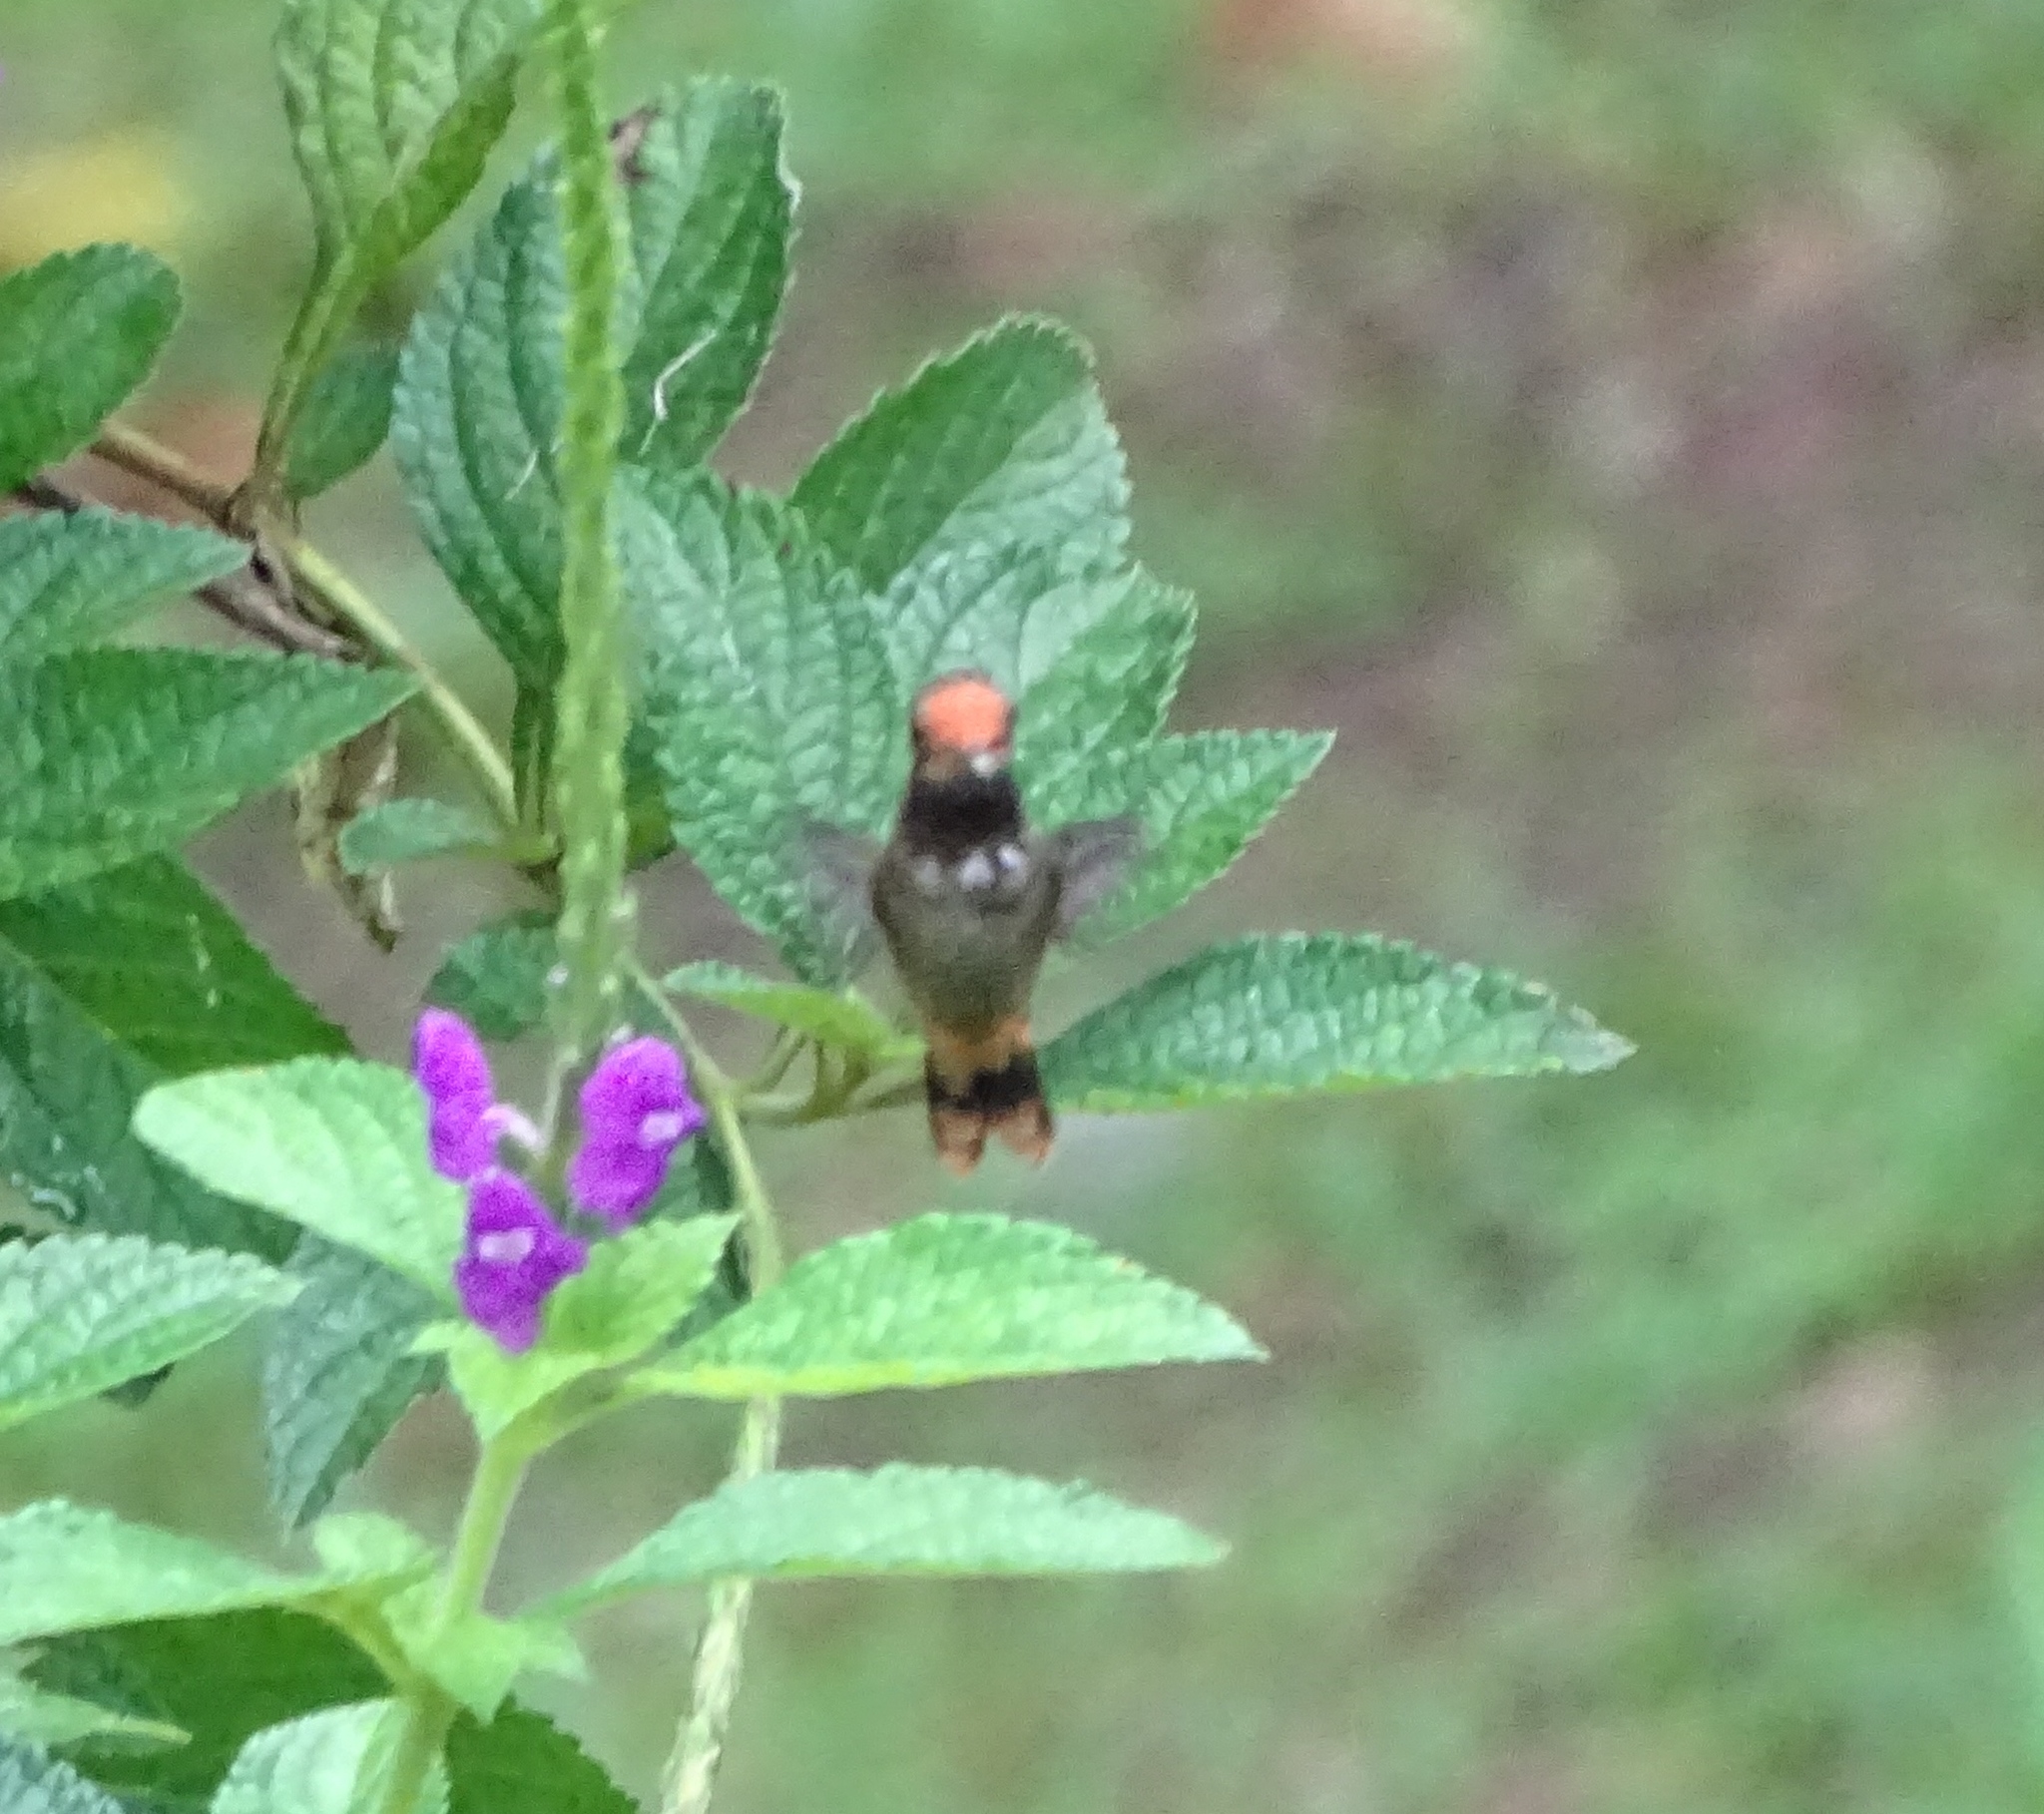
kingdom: Animalia
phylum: Chordata
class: Aves
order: Apodiformes
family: Trochilidae
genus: Lophornis
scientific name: Lophornis delattrei
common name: Rufous-crested coquette
